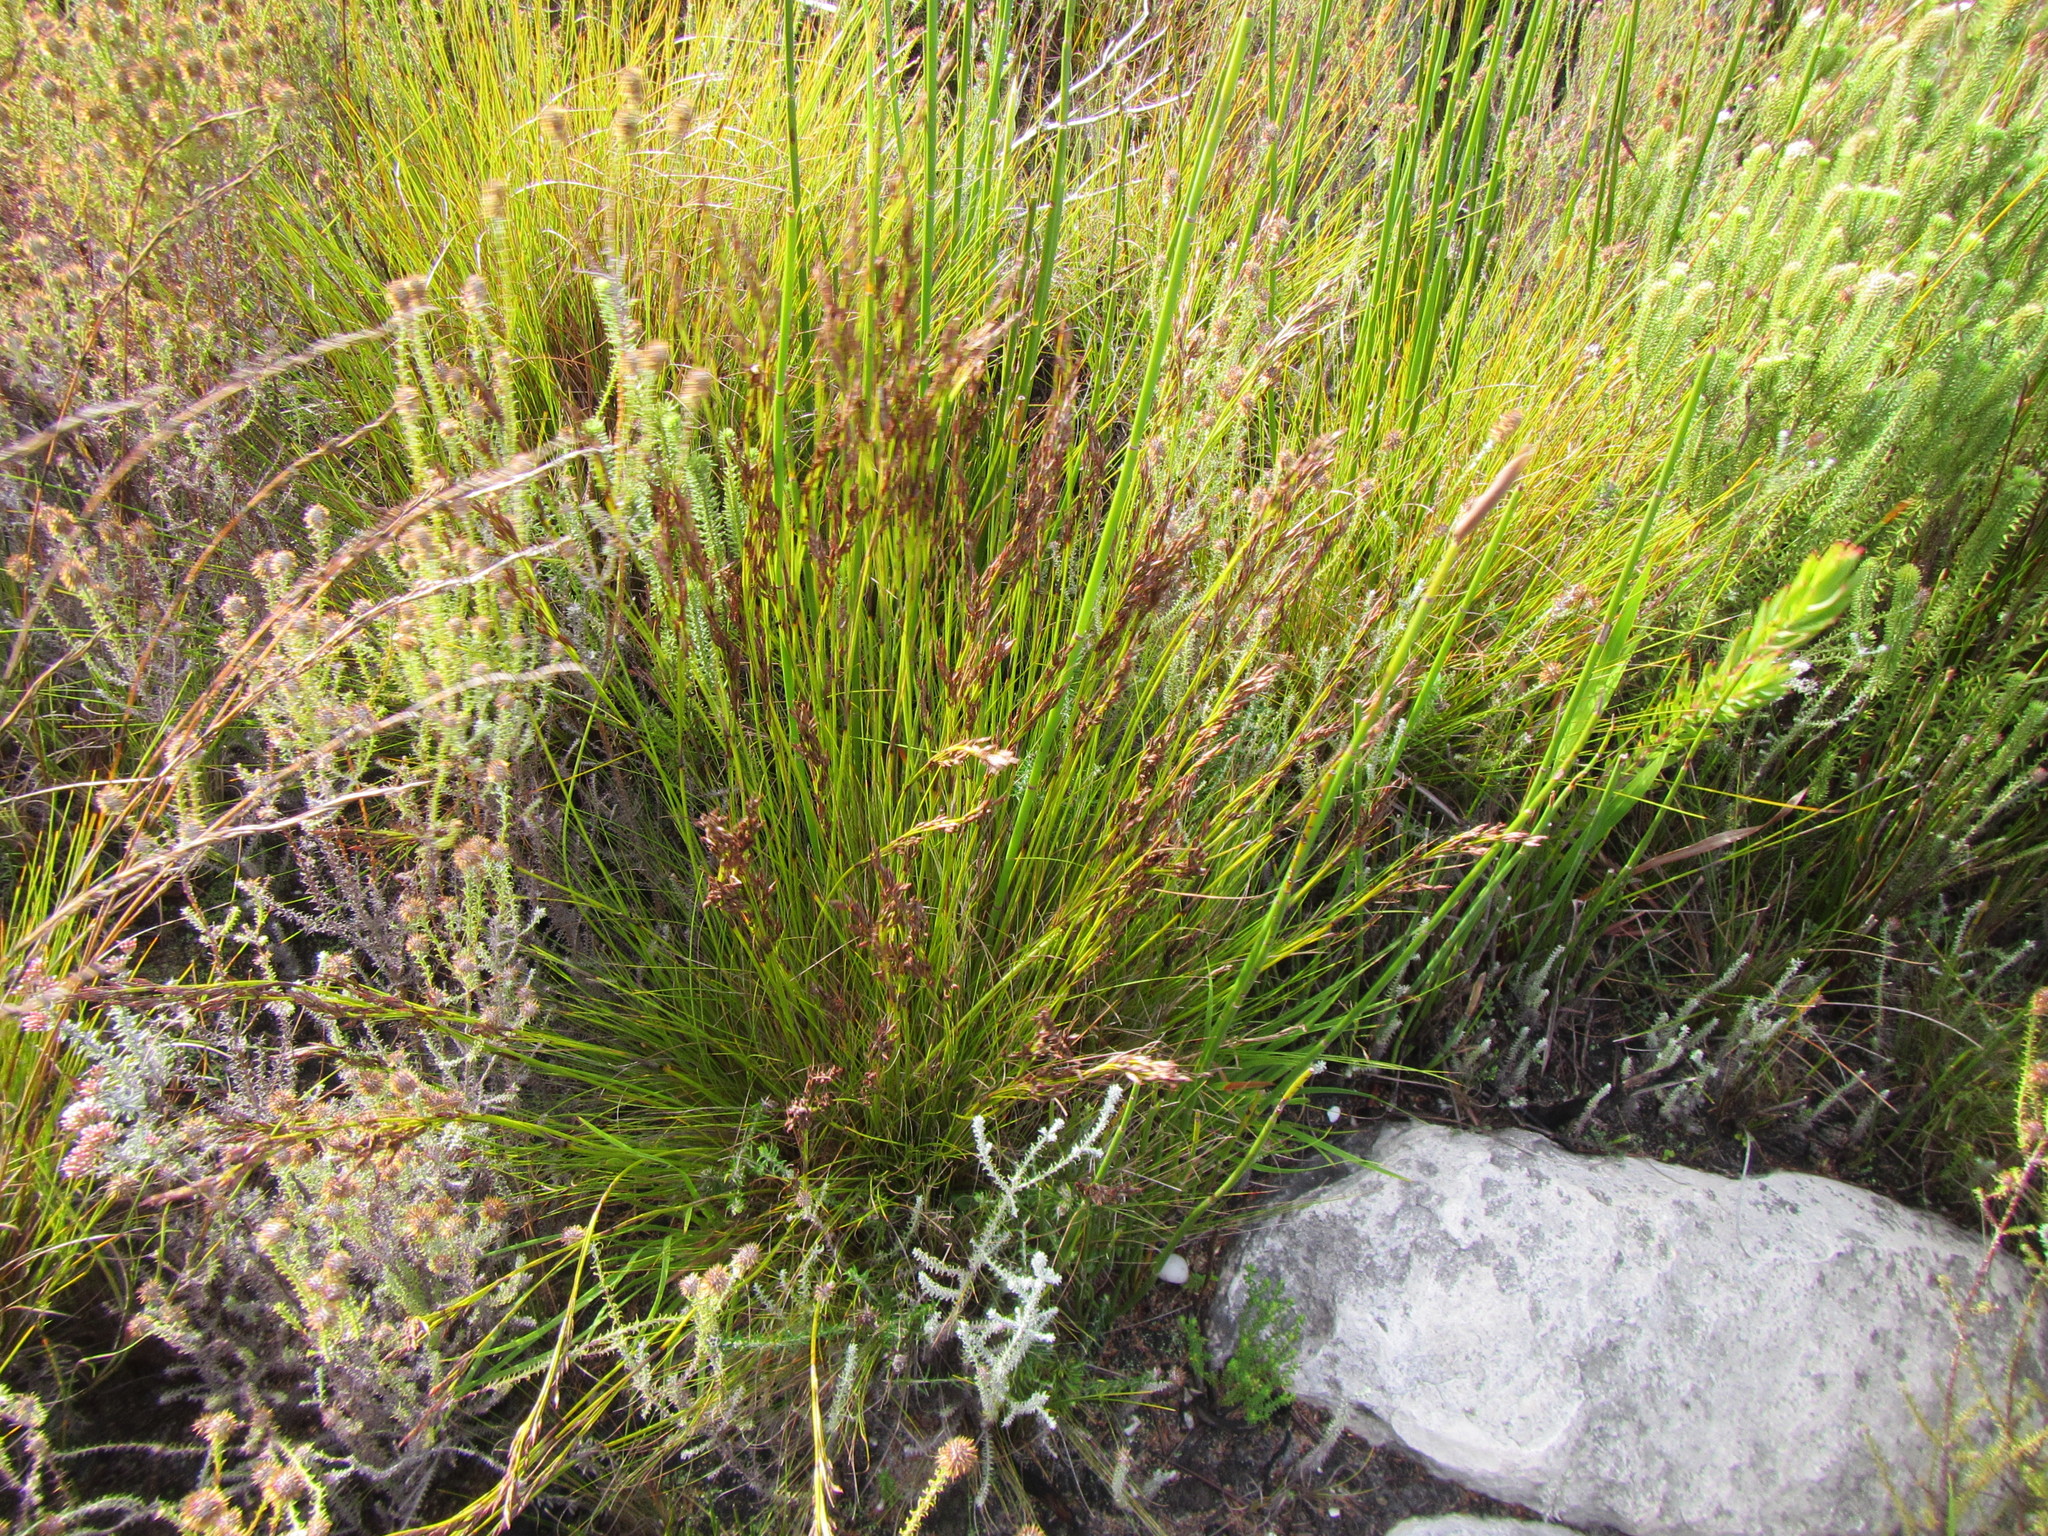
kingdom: Plantae
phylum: Tracheophyta
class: Liliopsida
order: Poales
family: Cyperaceae
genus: Tetraria
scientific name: Tetraria fasciata
